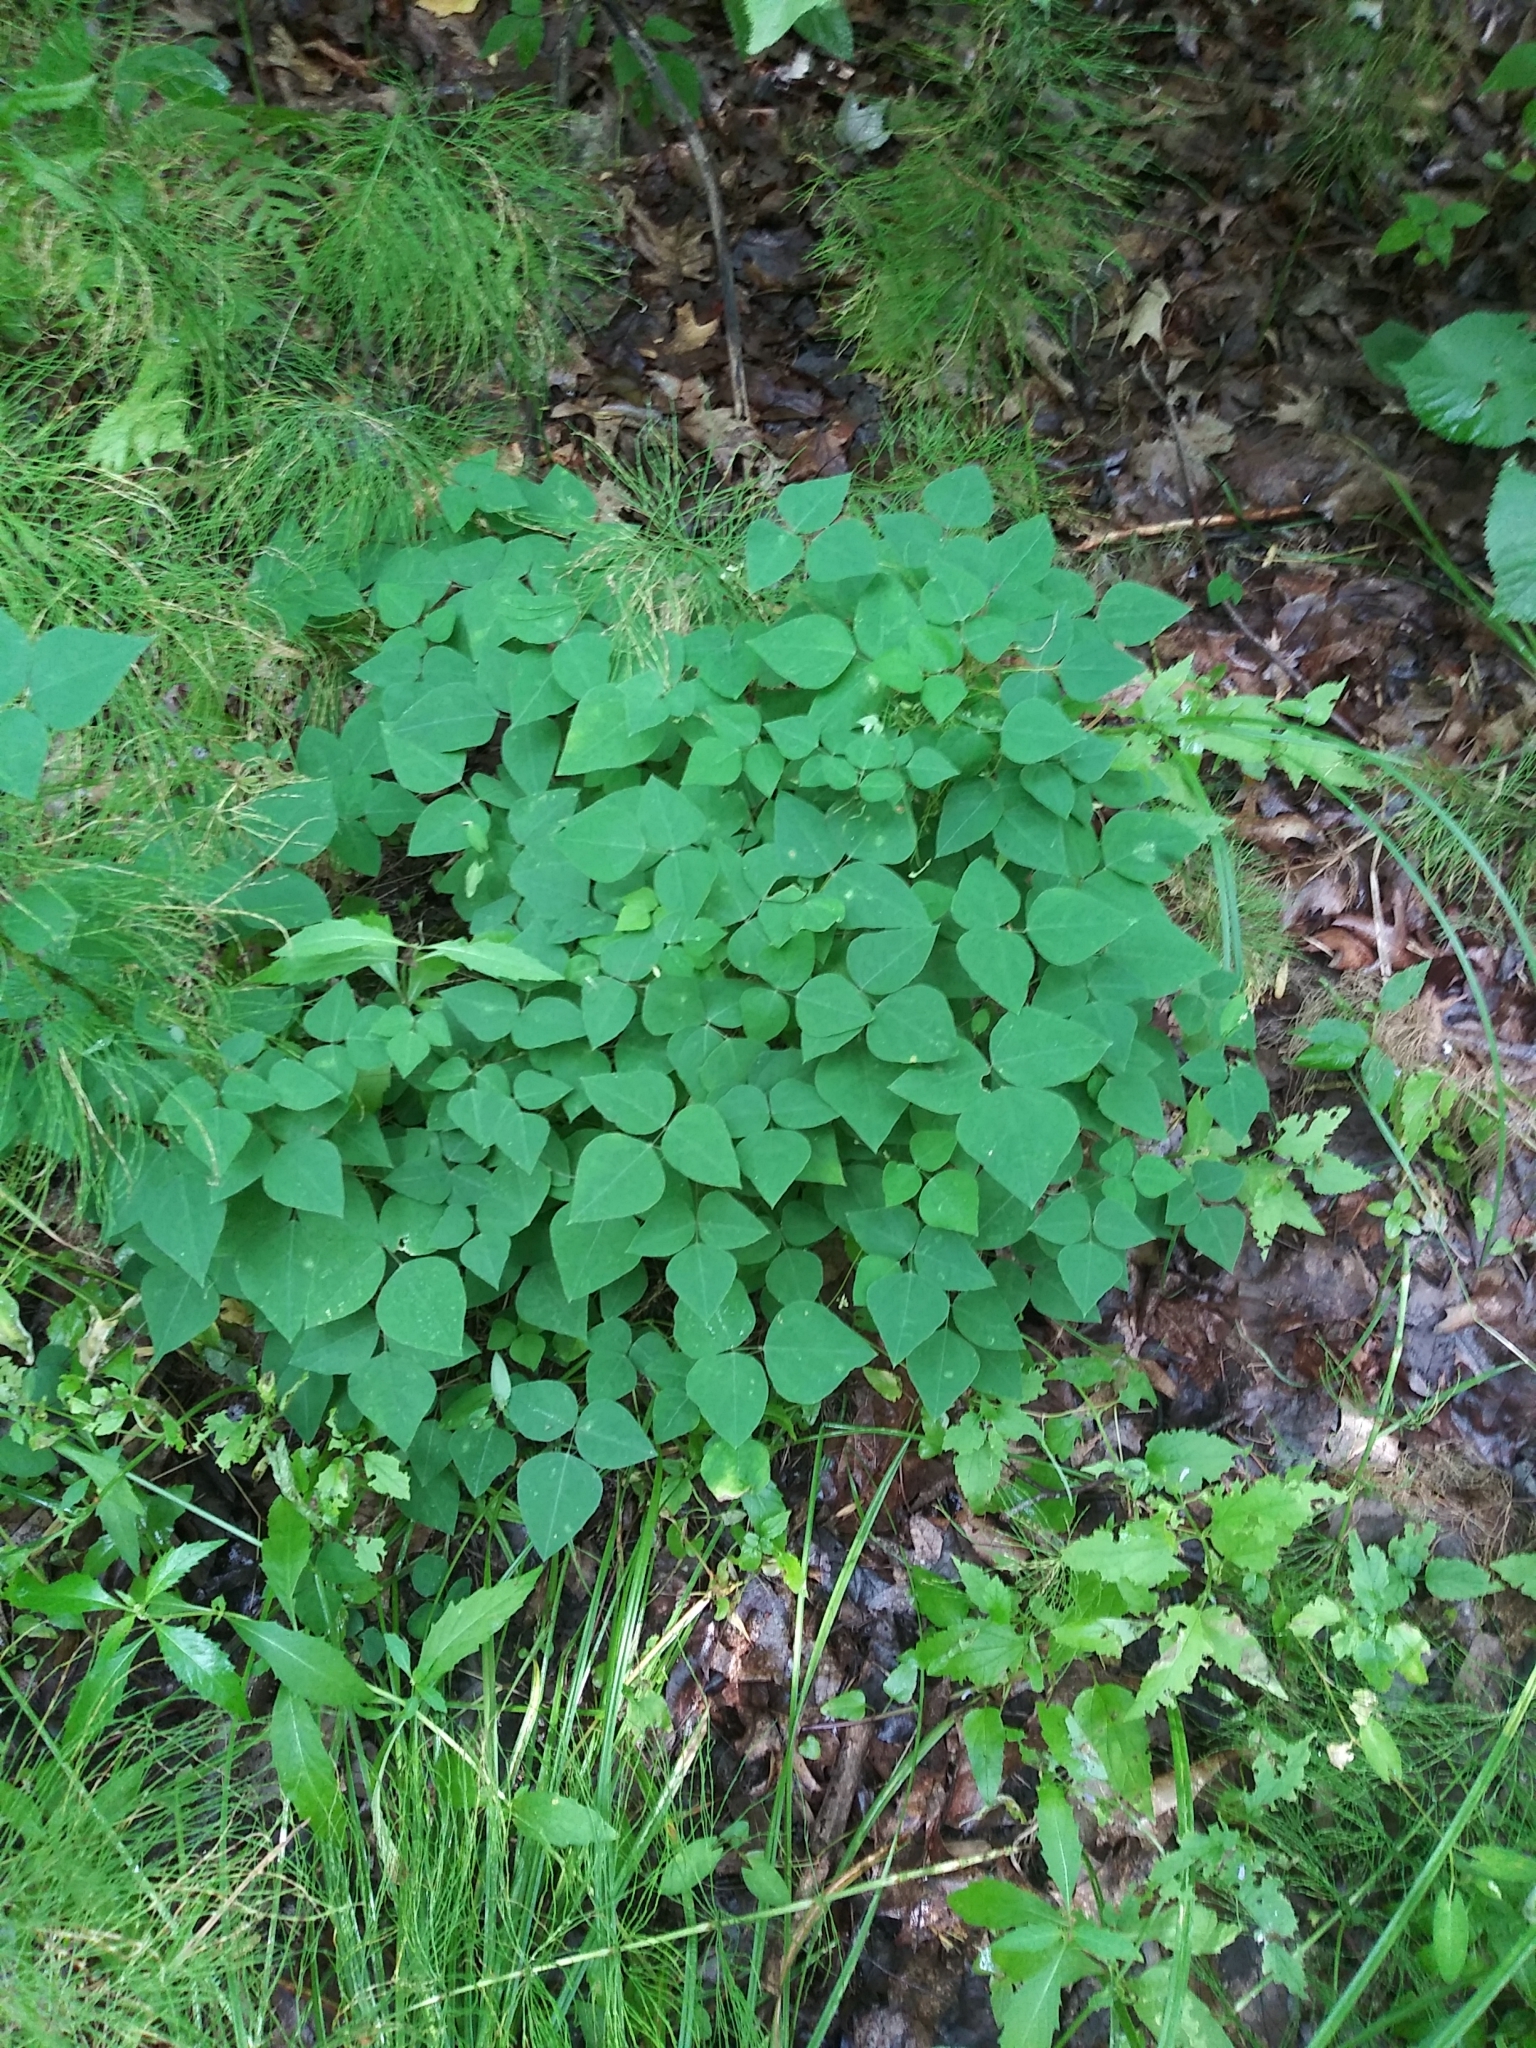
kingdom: Plantae
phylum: Tracheophyta
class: Magnoliopsida
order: Fabales
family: Fabaceae
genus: Amphicarpaea
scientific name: Amphicarpaea bracteata
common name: American hog peanut
